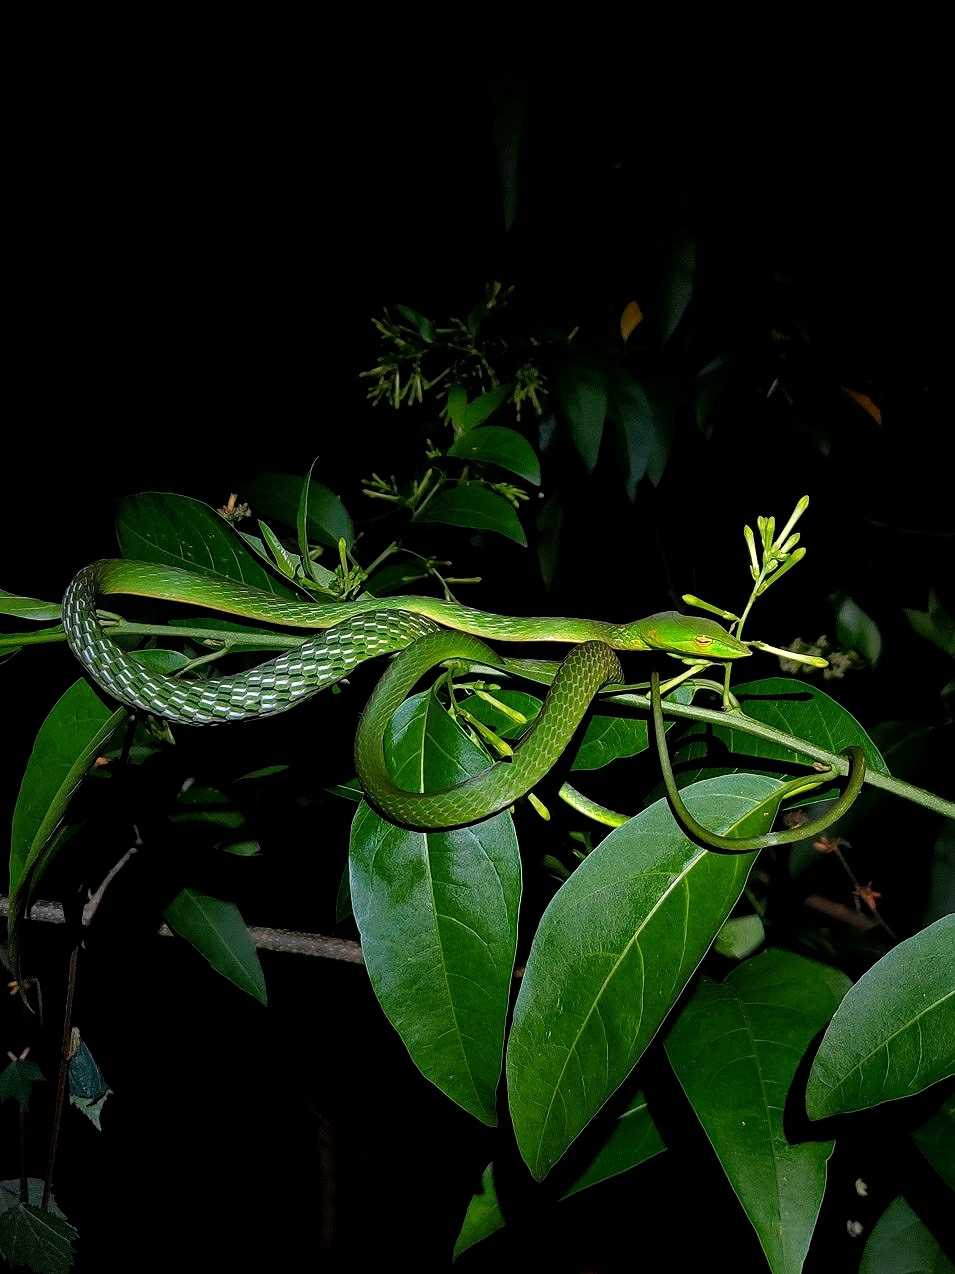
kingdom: Animalia
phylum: Chordata
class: Squamata
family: Colubridae
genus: Ahaetulla
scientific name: Ahaetulla farnsworthi
